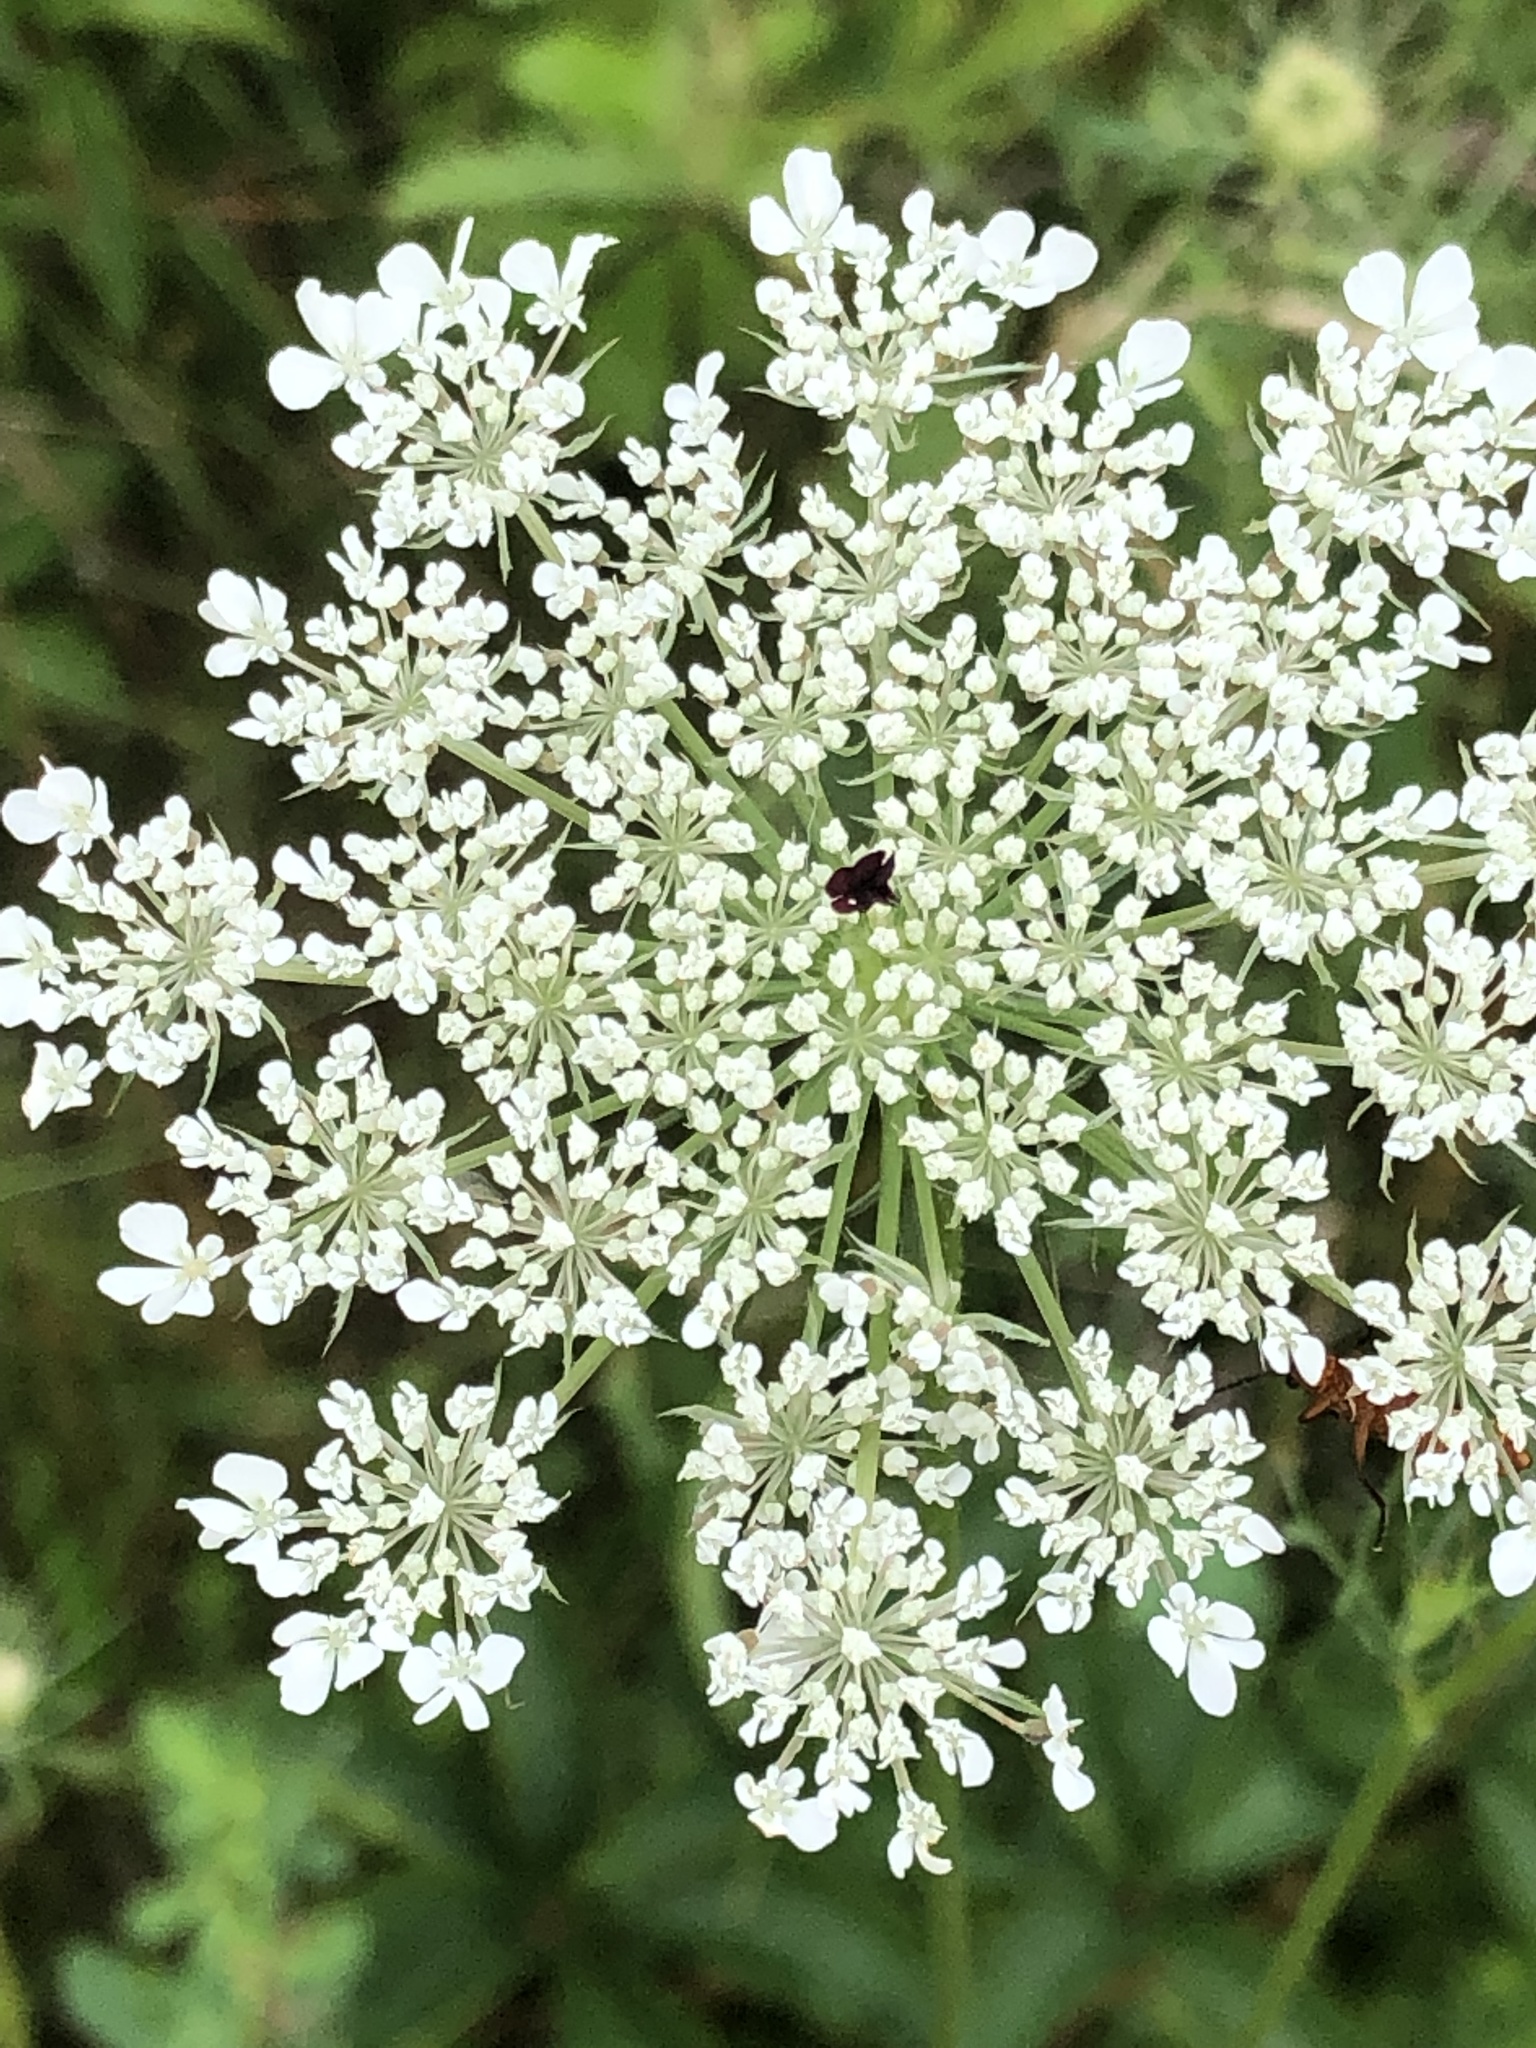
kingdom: Plantae
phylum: Tracheophyta
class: Magnoliopsida
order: Apiales
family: Apiaceae
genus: Daucus
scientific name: Daucus carota
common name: Wild carrot
